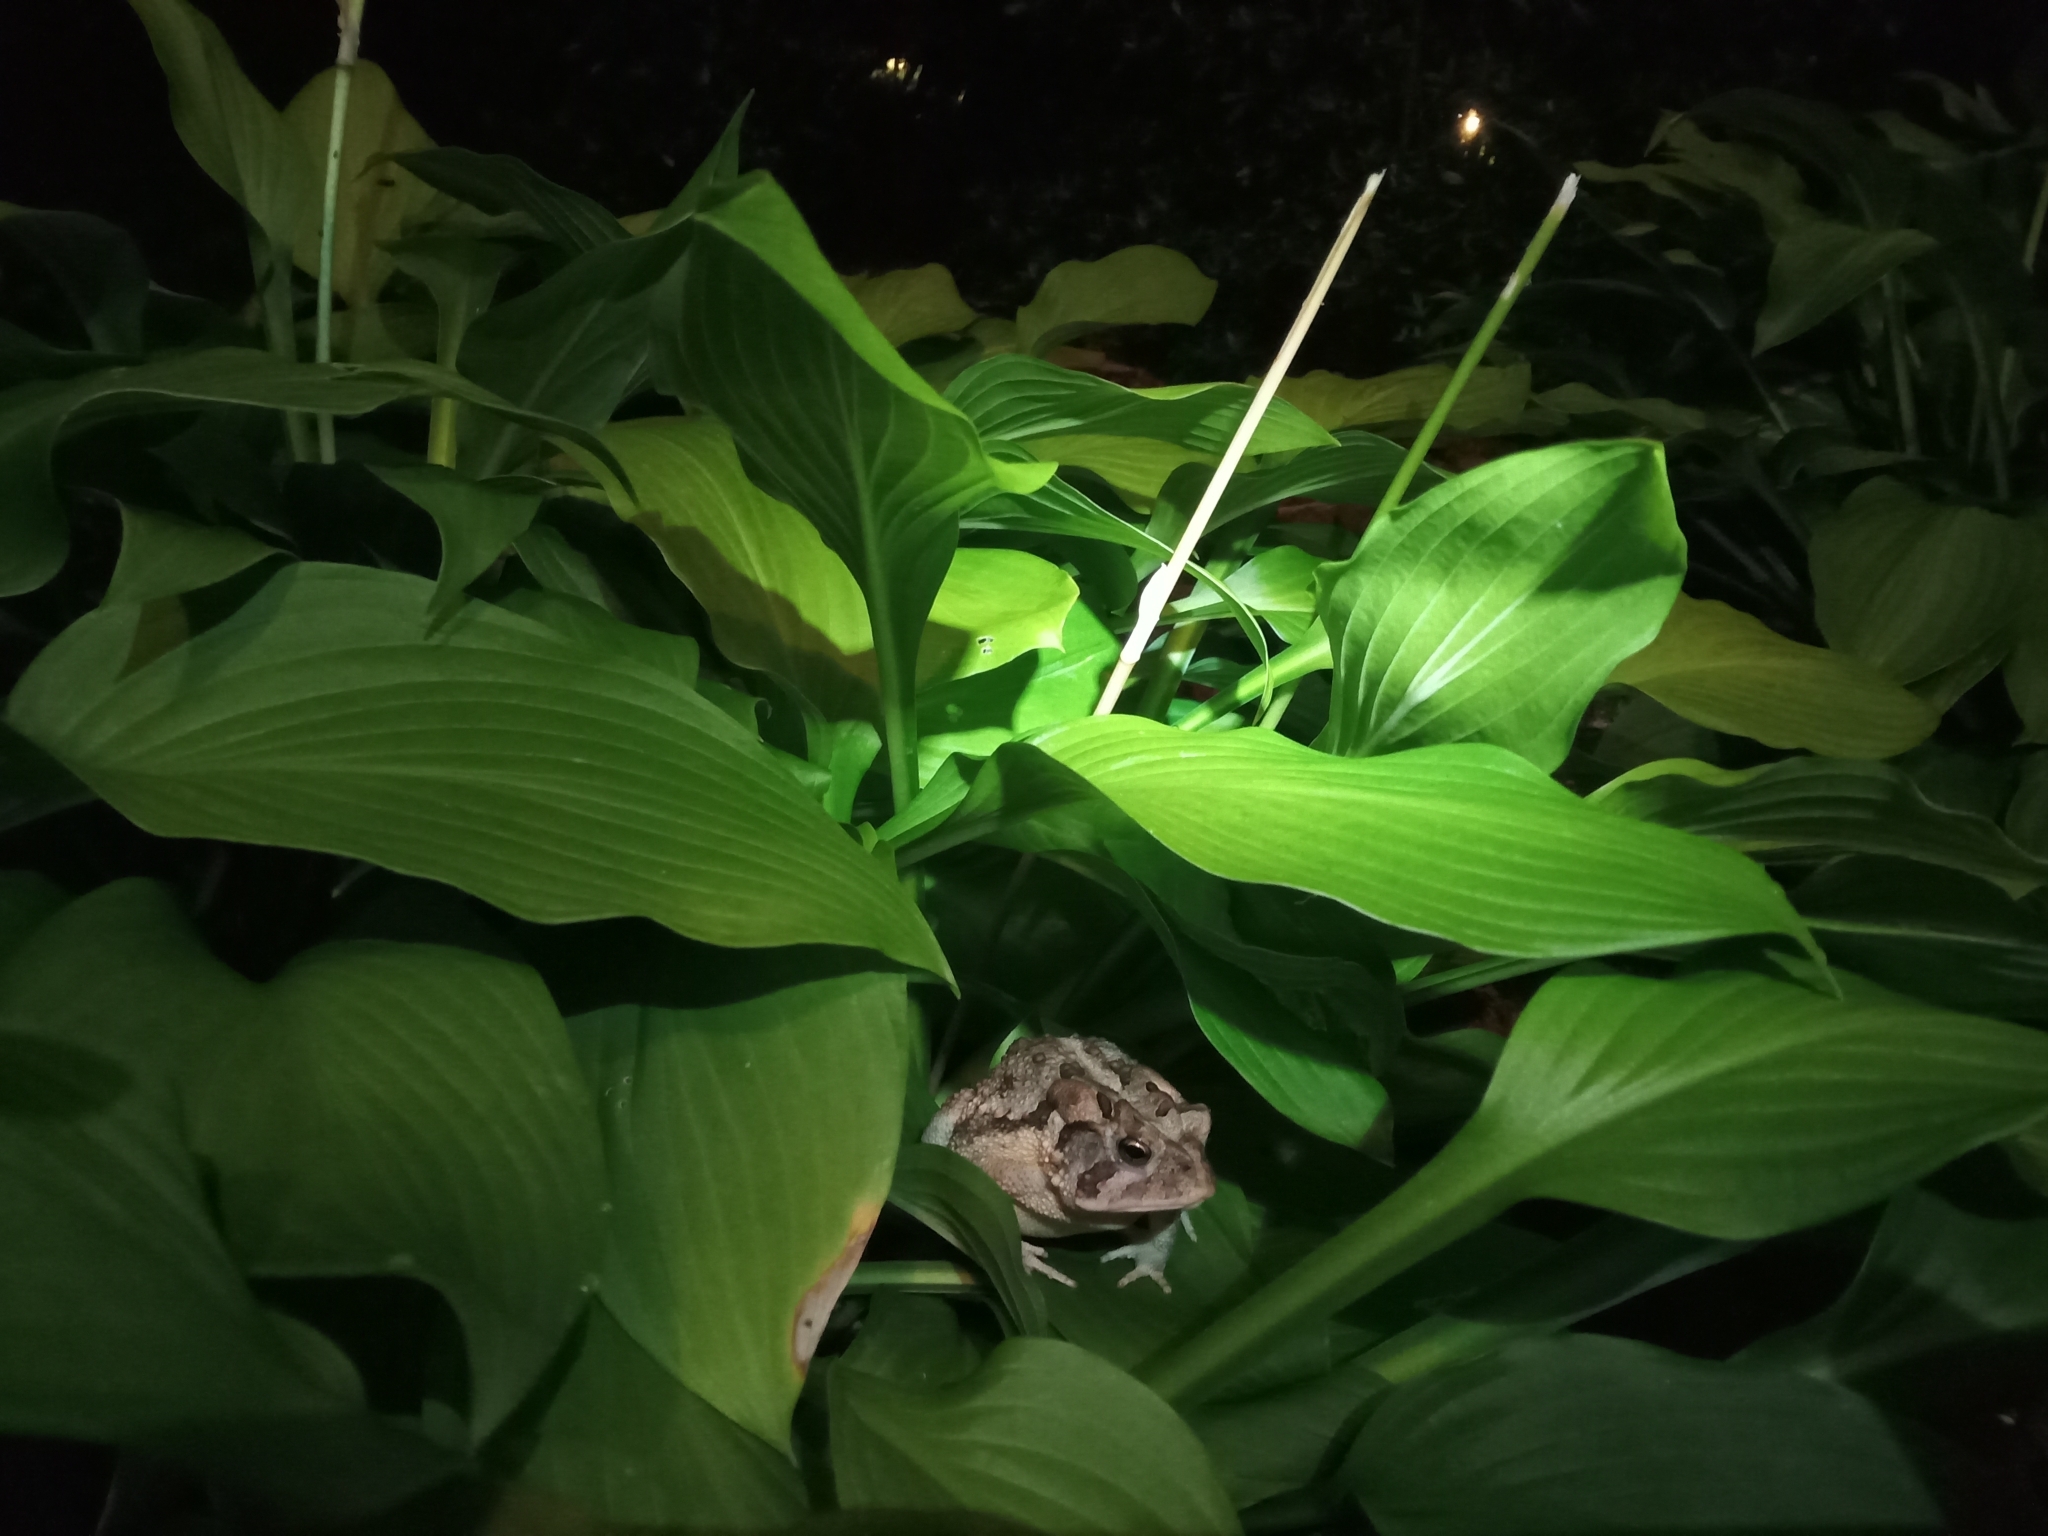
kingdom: Animalia
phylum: Chordata
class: Amphibia
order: Anura
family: Bufonidae
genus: Anaxyrus
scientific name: Anaxyrus terrestris
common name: Southern toad
